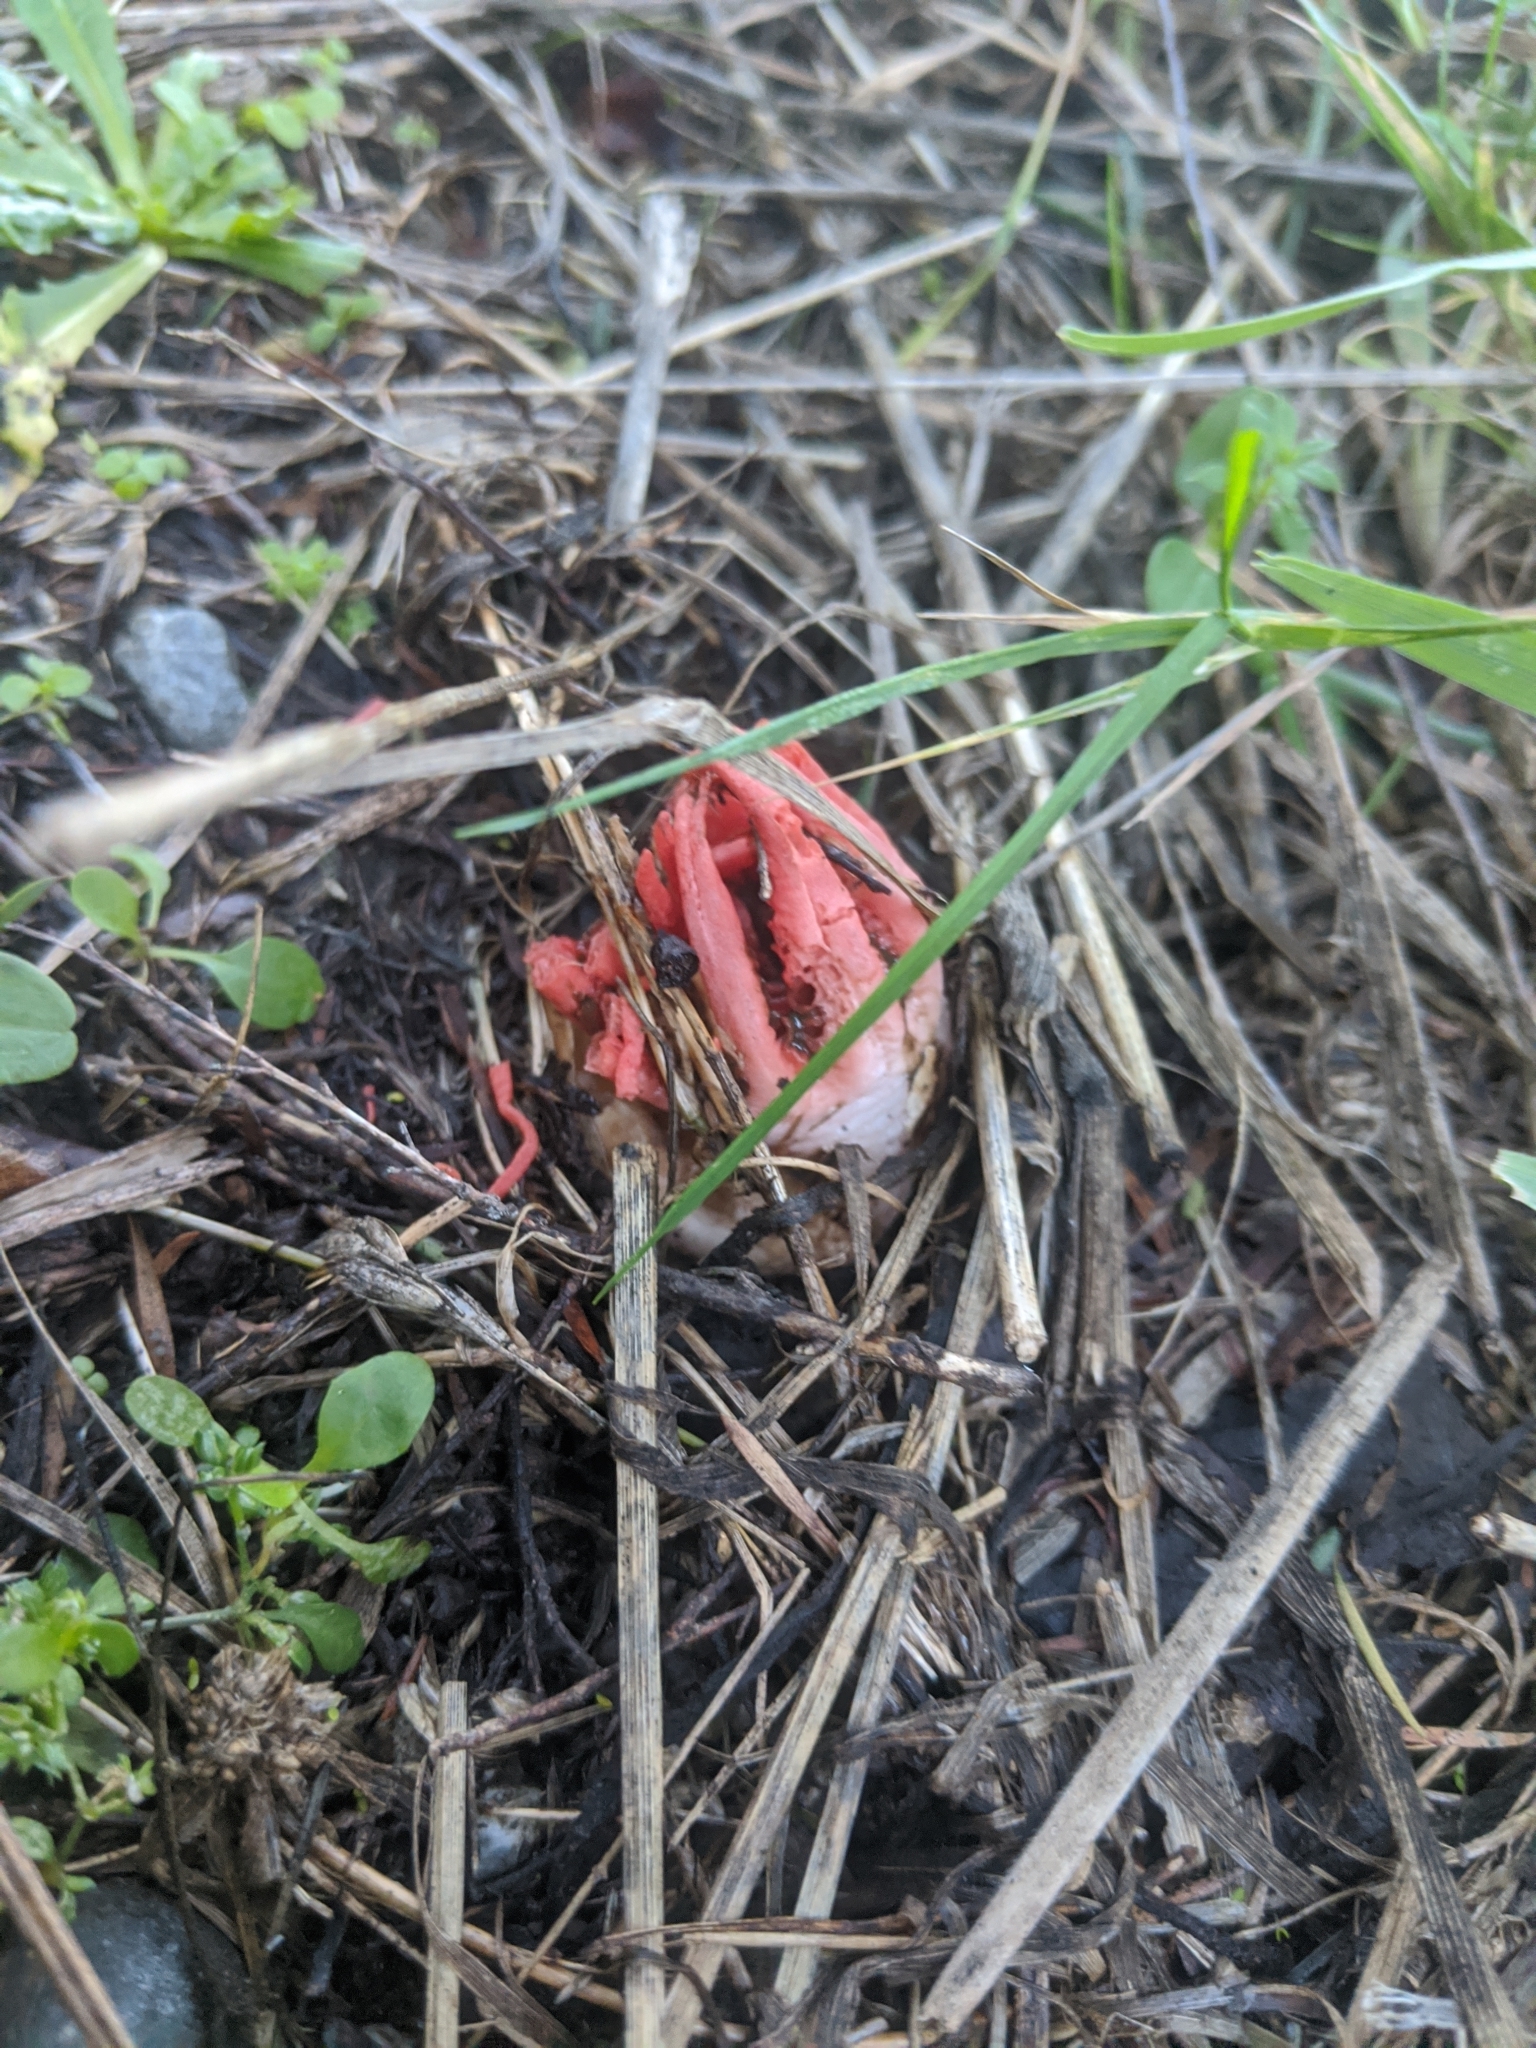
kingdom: Fungi
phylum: Basidiomycota
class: Agaricomycetes
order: Phallales
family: Phallaceae
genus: Aseroe
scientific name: Aseroe rubra
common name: Starfish fungus
